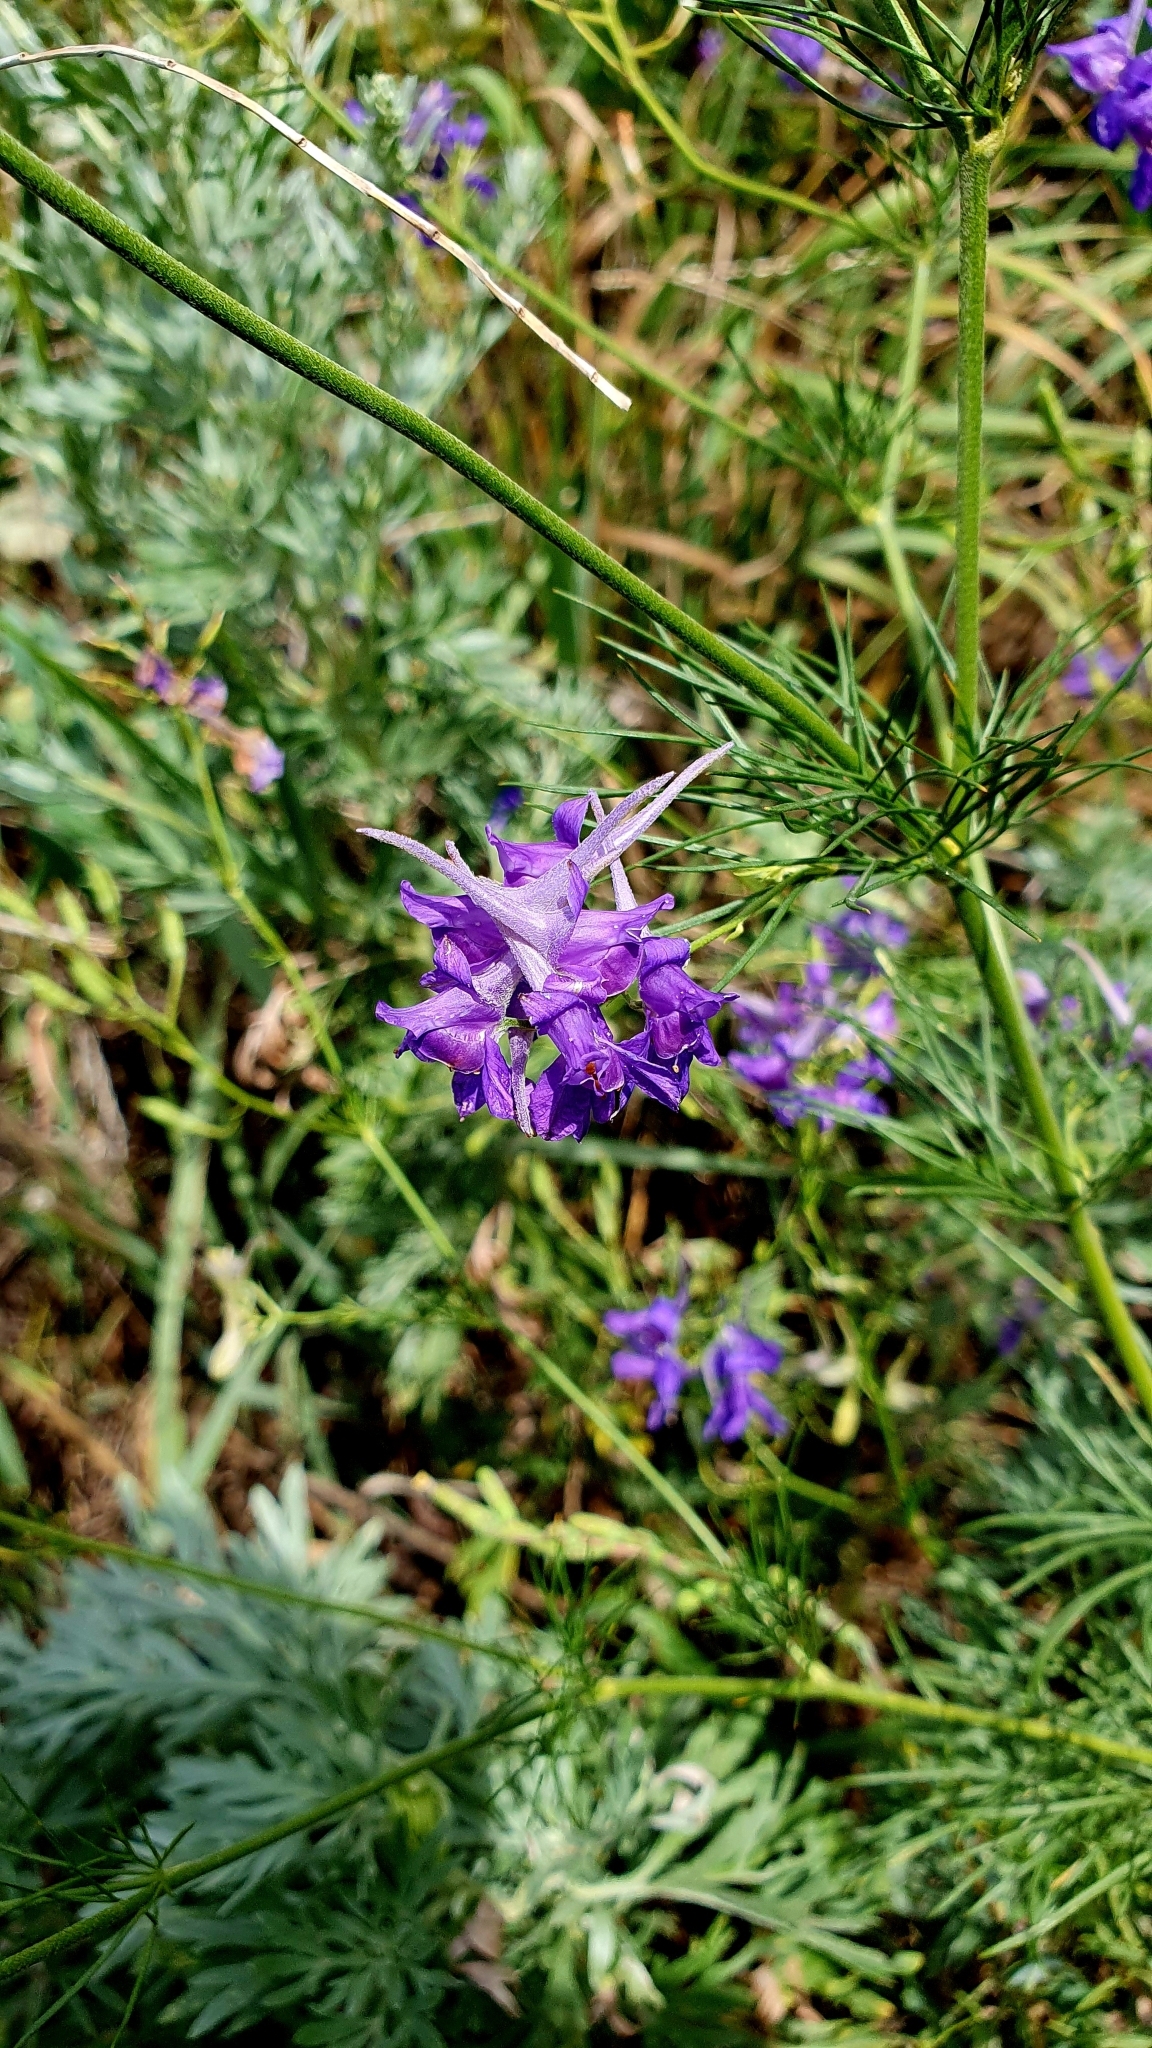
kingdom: Plantae
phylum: Tracheophyta
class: Magnoliopsida
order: Ranunculales
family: Ranunculaceae
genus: Delphinium
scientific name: Delphinium consolida
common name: Branching larkspur
